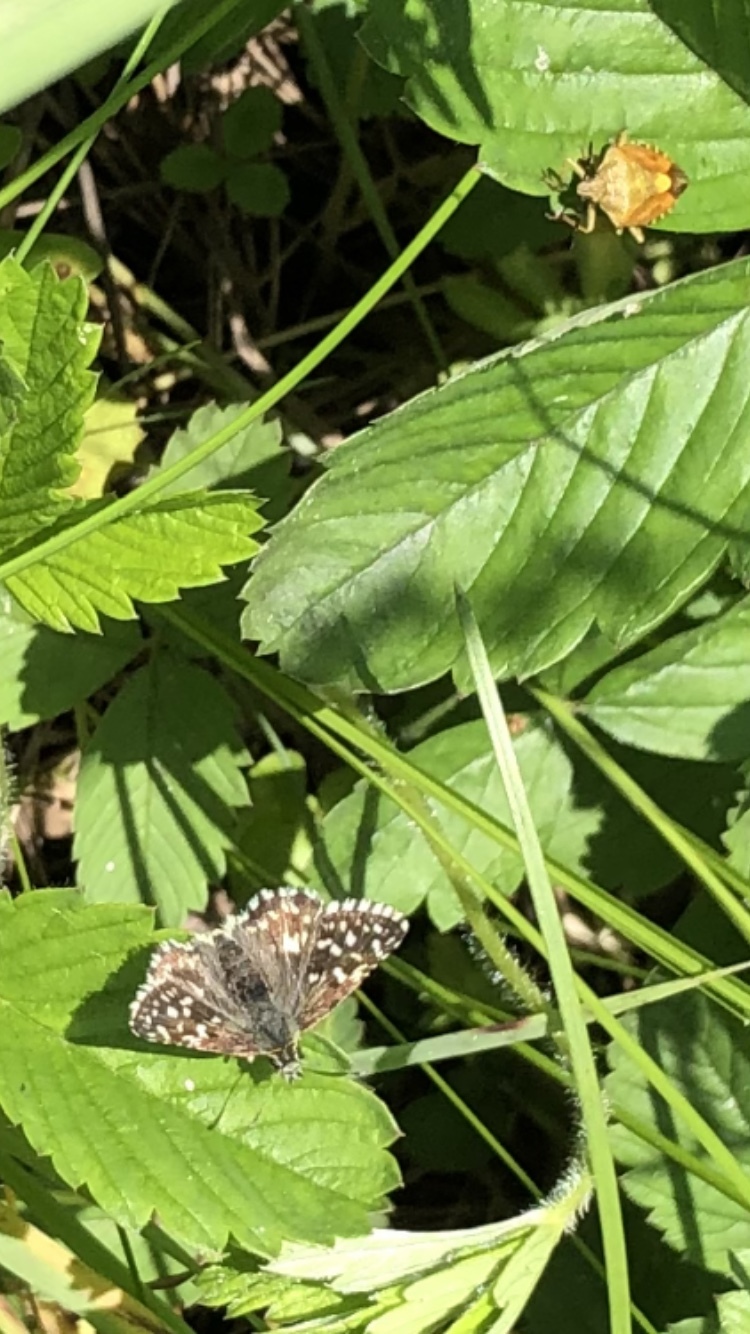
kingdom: Animalia
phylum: Arthropoda
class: Insecta
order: Lepidoptera
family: Hesperiidae
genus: Pyrgus
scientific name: Pyrgus malvae
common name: Grizzled skipper
